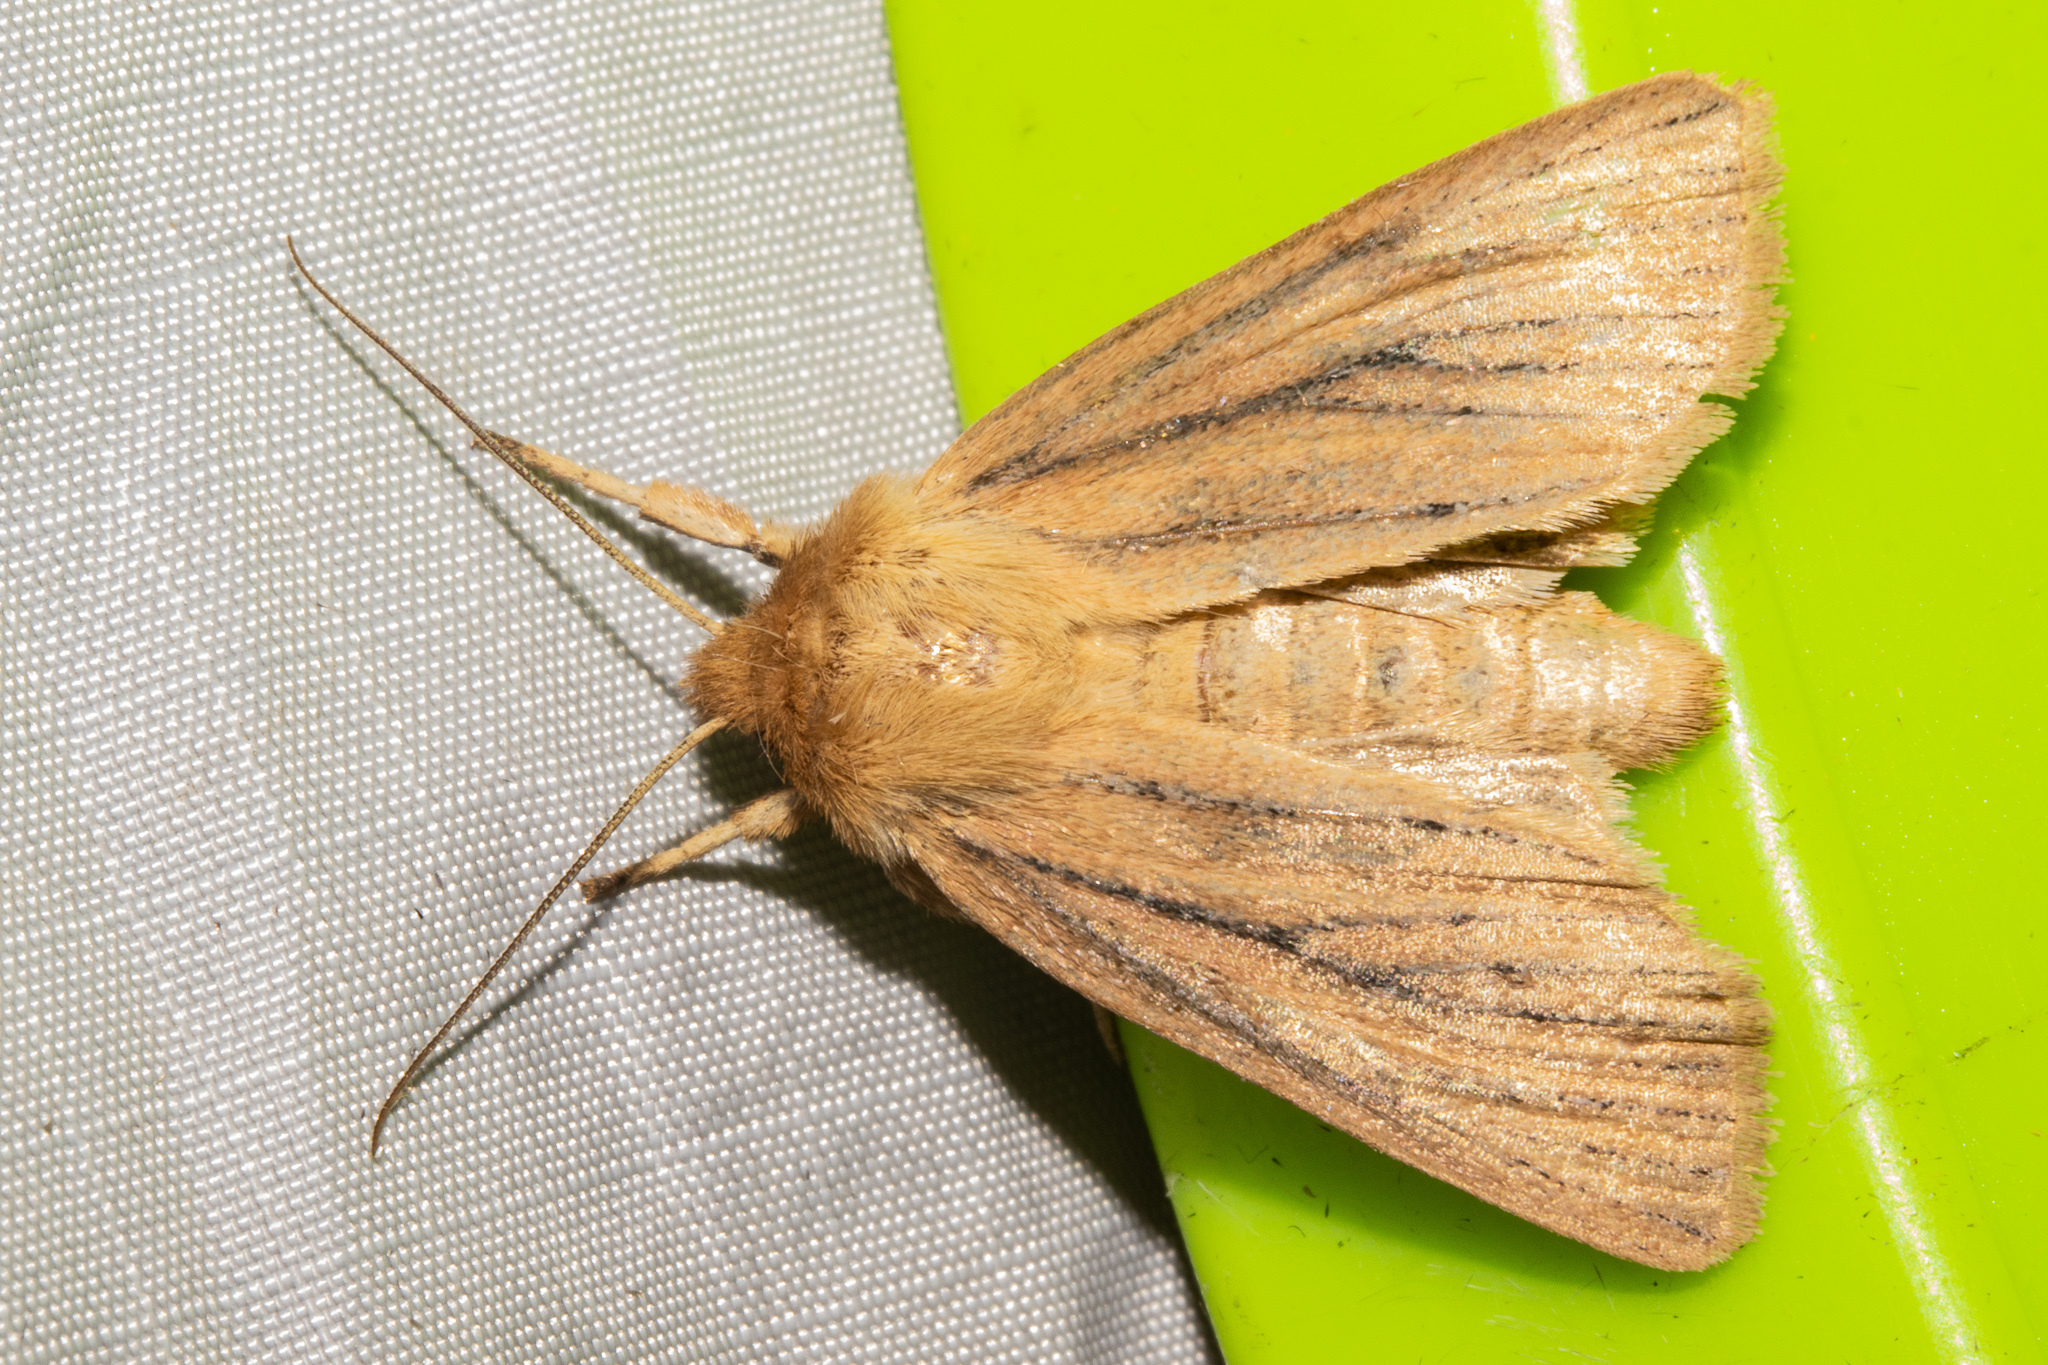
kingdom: Animalia
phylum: Arthropoda
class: Insecta
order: Lepidoptera
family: Noctuidae
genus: Ichneutica
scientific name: Ichneutica
